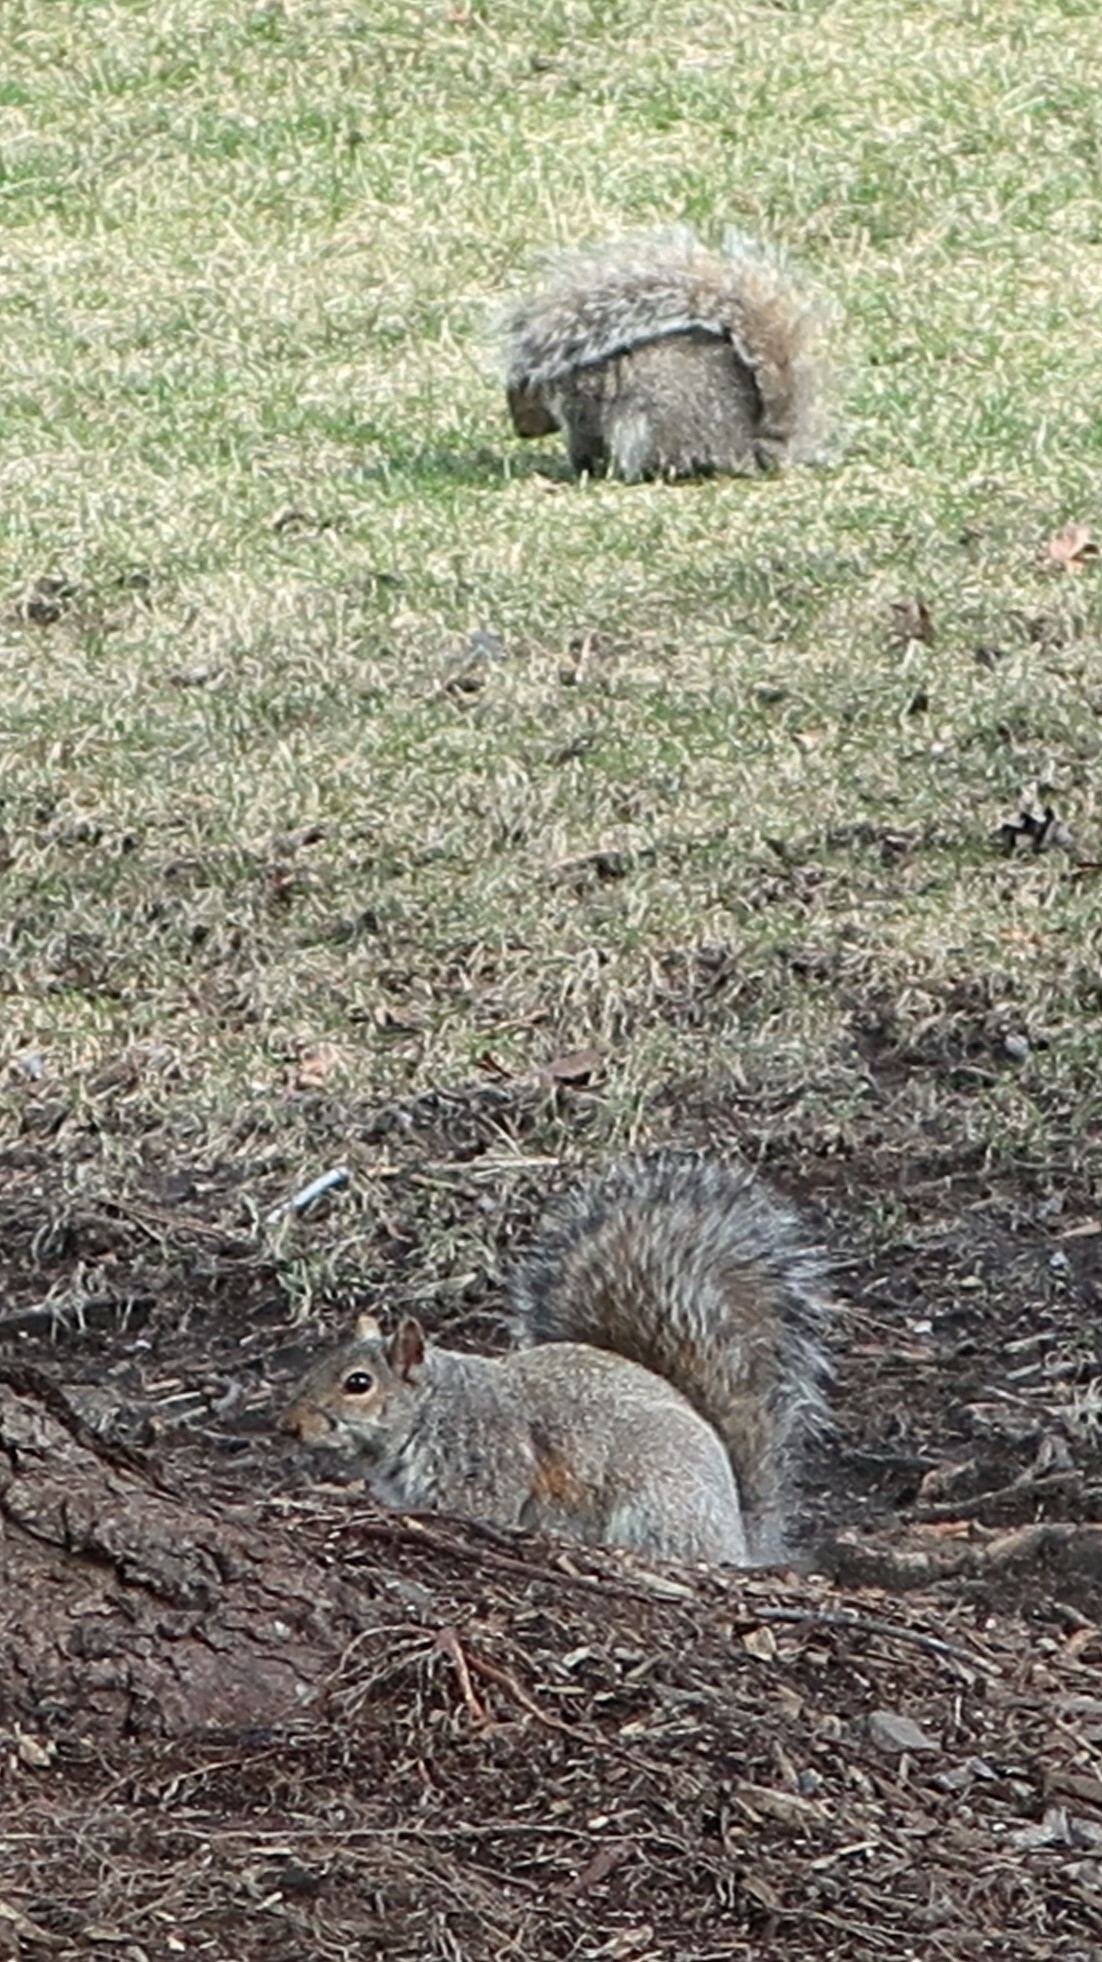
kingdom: Animalia
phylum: Chordata
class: Mammalia
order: Rodentia
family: Sciuridae
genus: Sciurus
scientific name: Sciurus carolinensis
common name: Eastern gray squirrel
